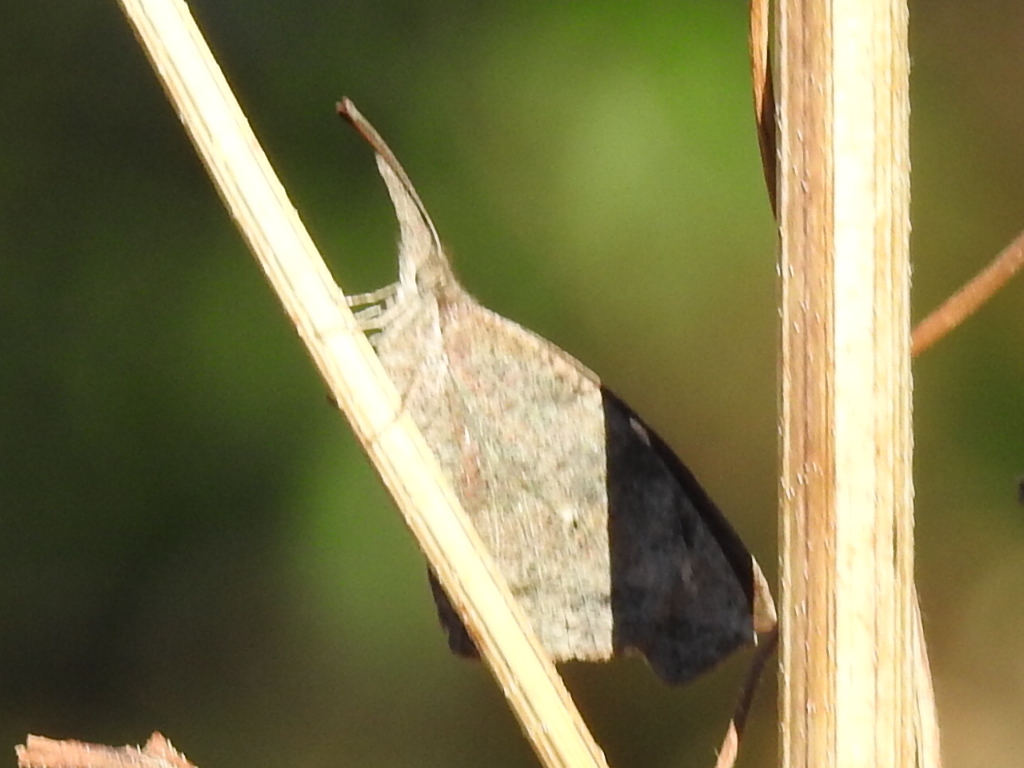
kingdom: Animalia
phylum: Arthropoda
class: Insecta
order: Lepidoptera
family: Nymphalidae
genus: Libytheana
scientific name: Libytheana carinenta
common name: American snout
